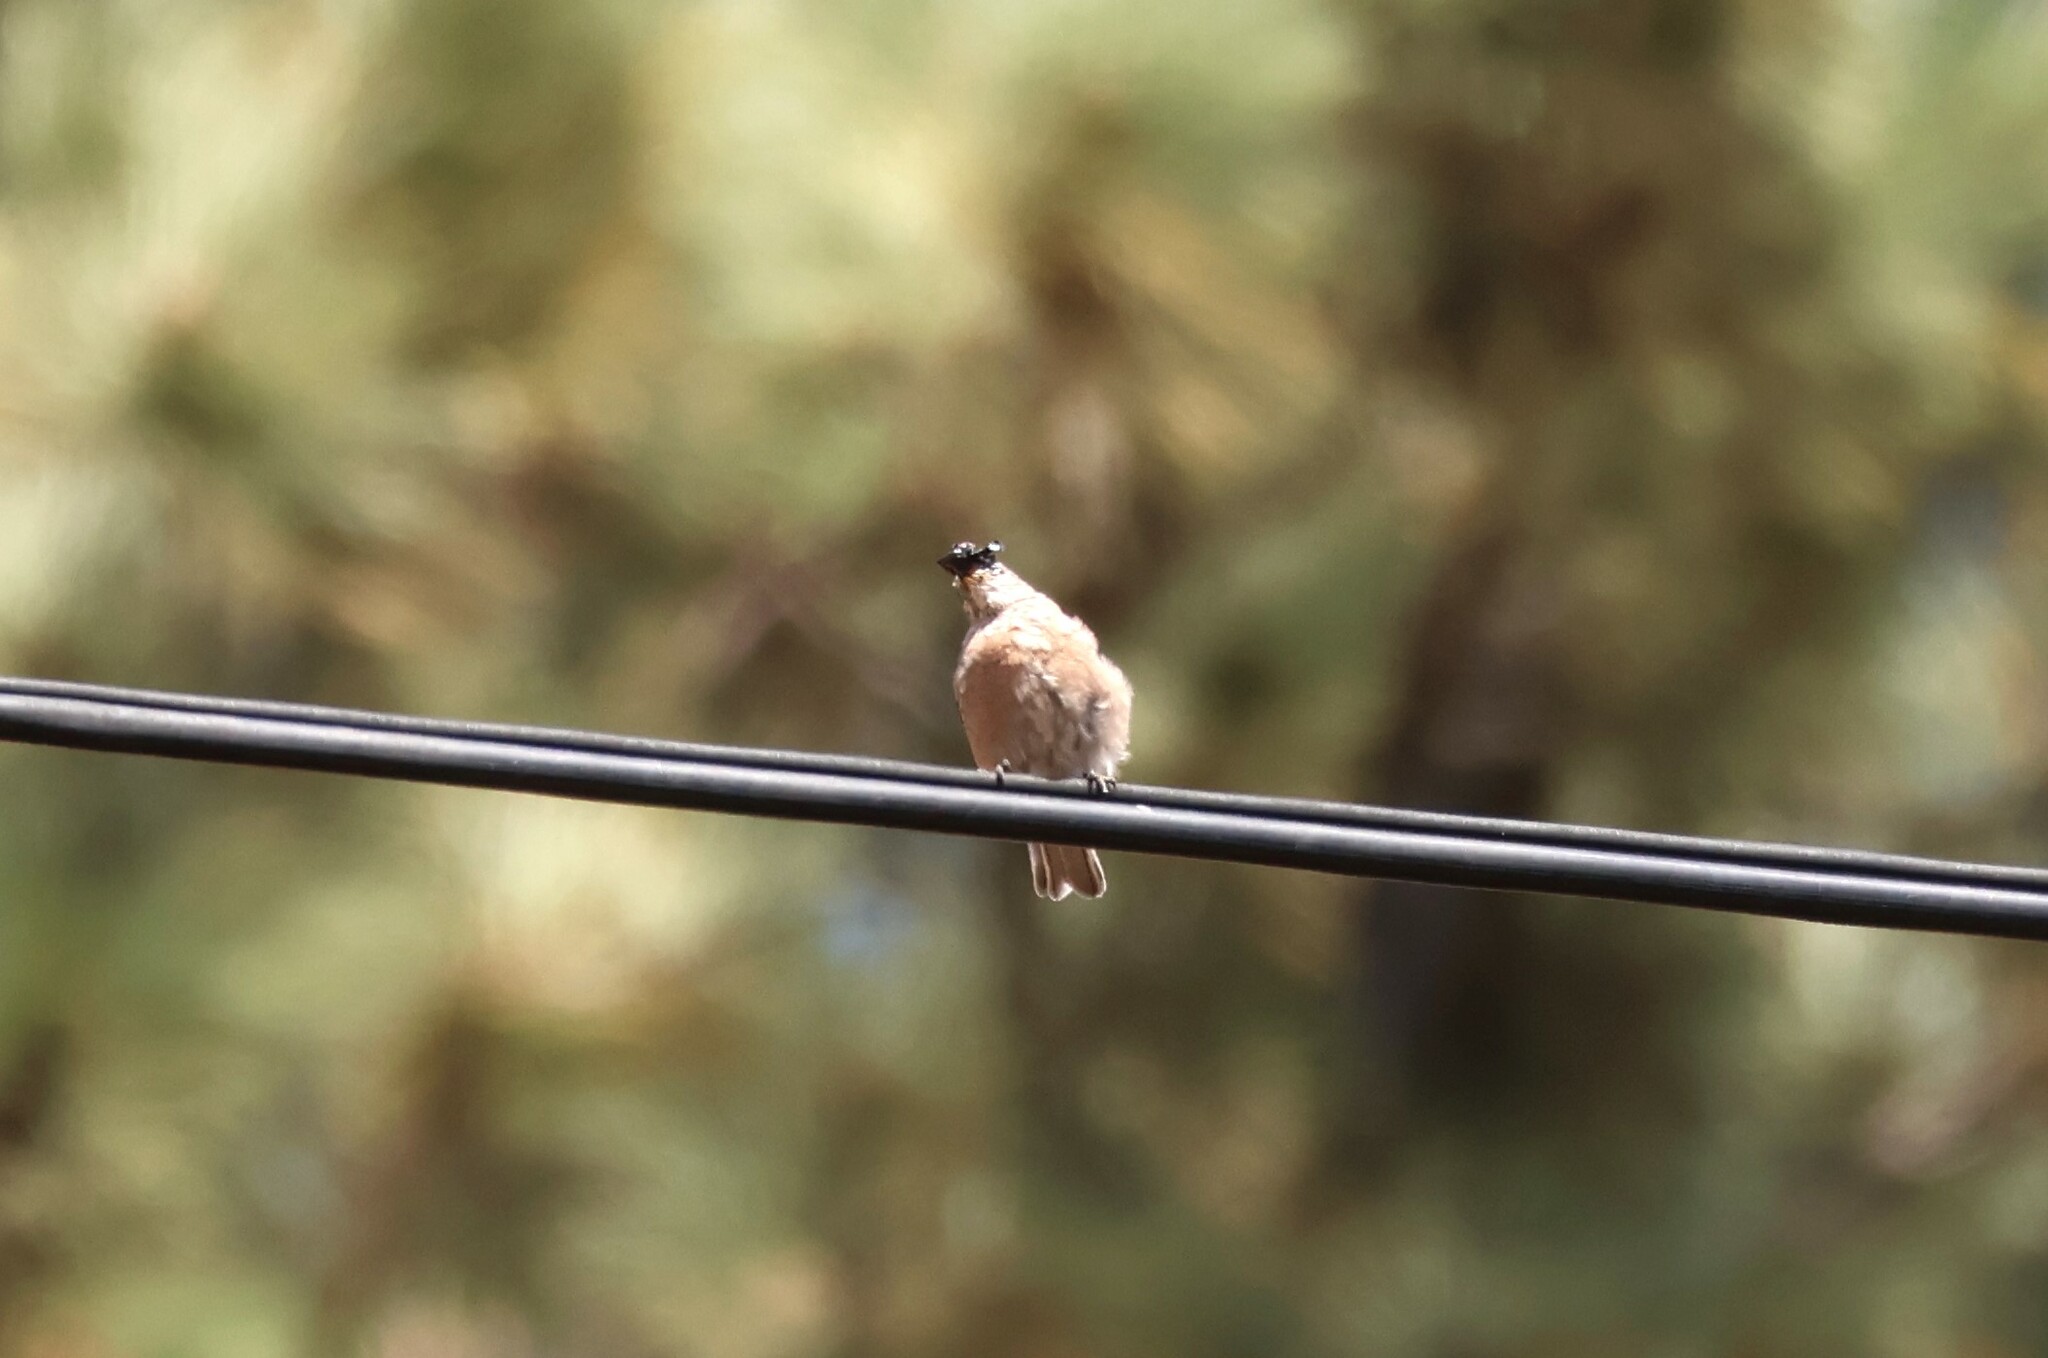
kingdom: Animalia
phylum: Chordata
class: Aves
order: Passeriformes
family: Turdidae
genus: Sialia
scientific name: Sialia mexicana
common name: Western bluebird
